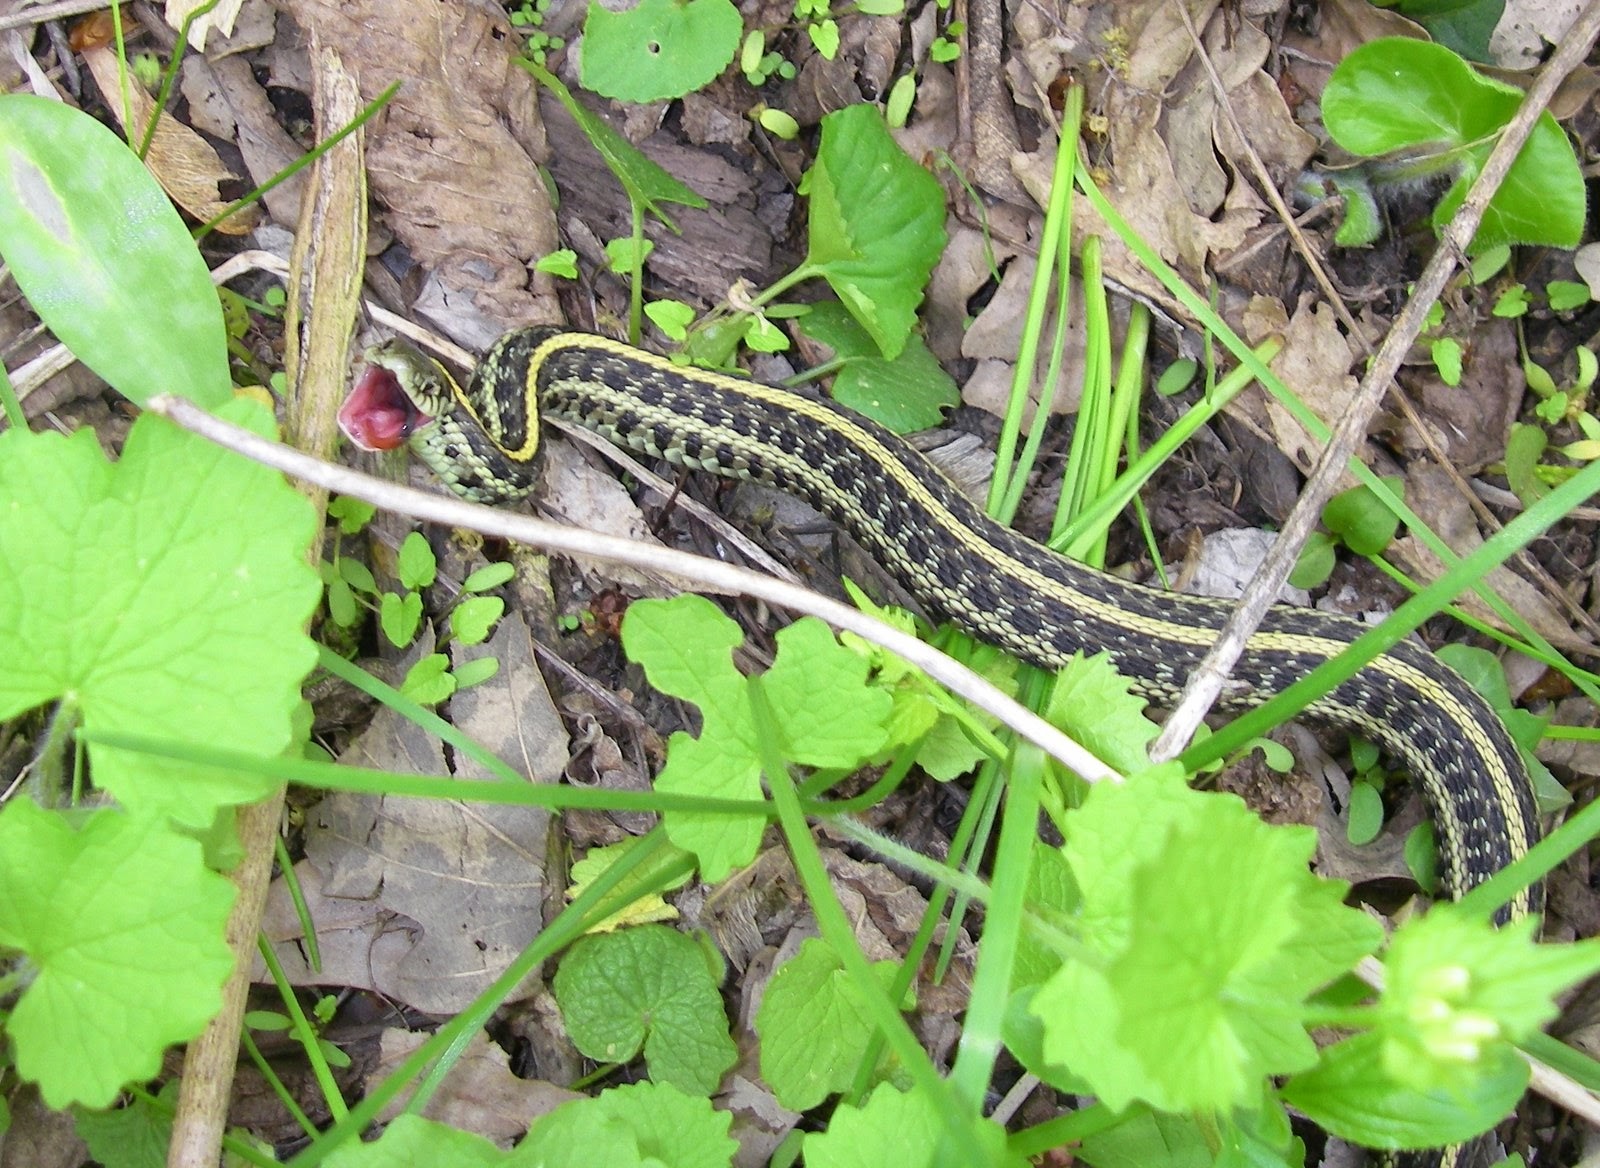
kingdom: Animalia
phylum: Chordata
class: Squamata
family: Colubridae
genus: Thamnophis
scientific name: Thamnophis radix
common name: Plains garter snake
